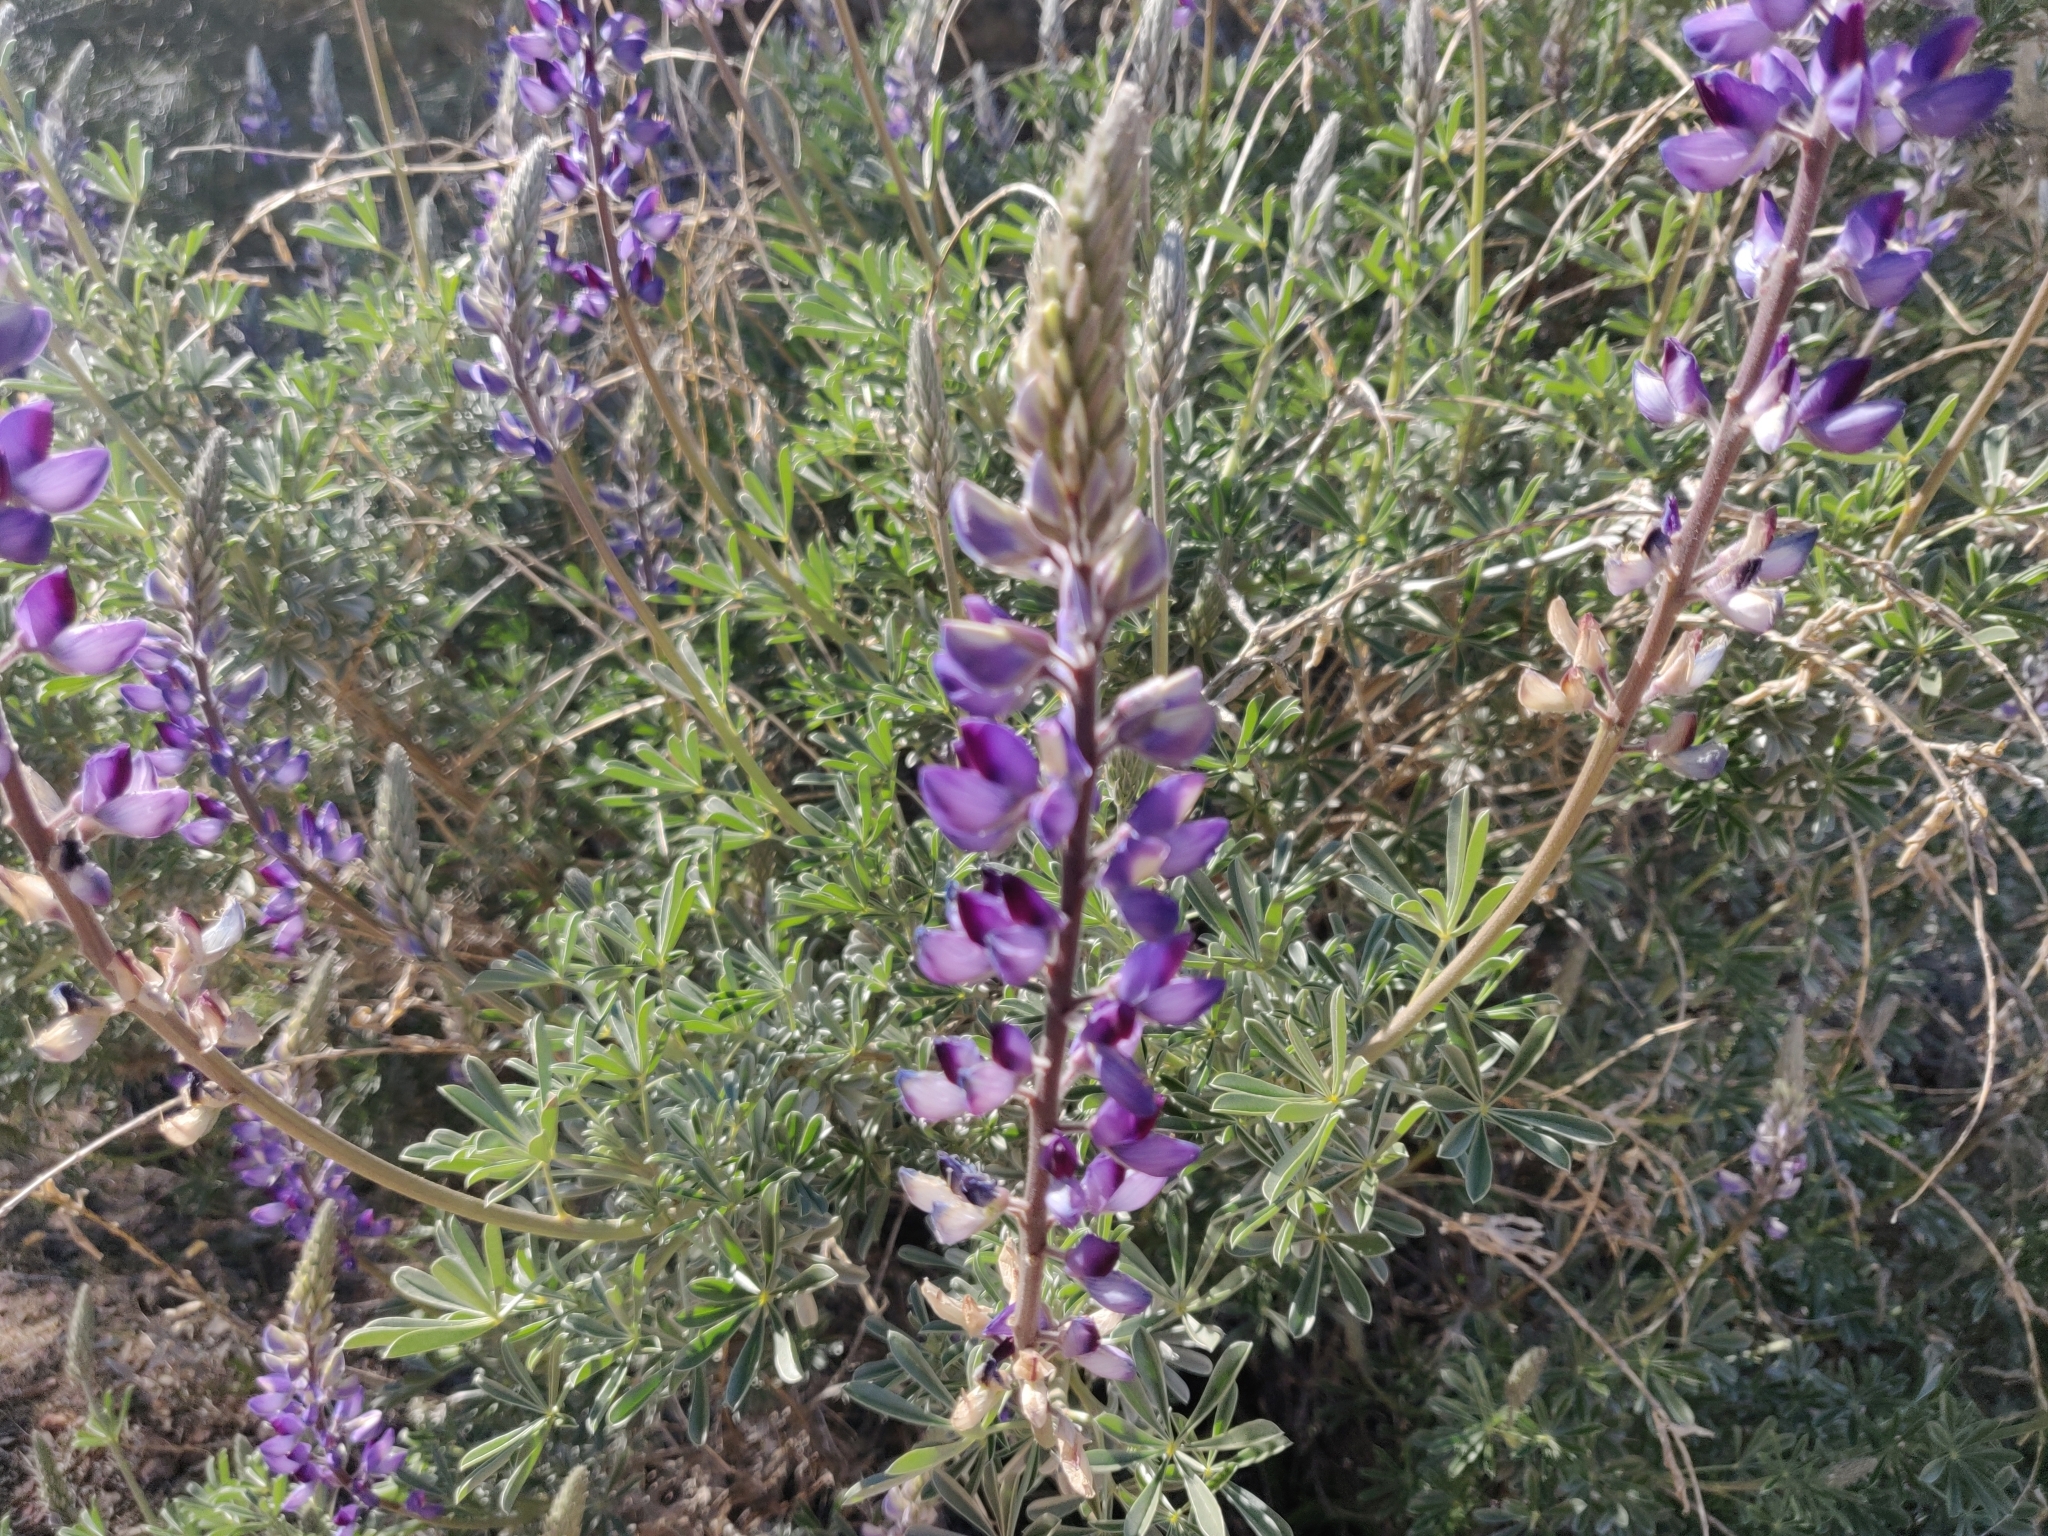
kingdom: Plantae
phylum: Tracheophyta
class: Magnoliopsida
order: Fabales
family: Fabaceae
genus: Lupinus
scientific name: Lupinus albifrons
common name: Foothill lupine
